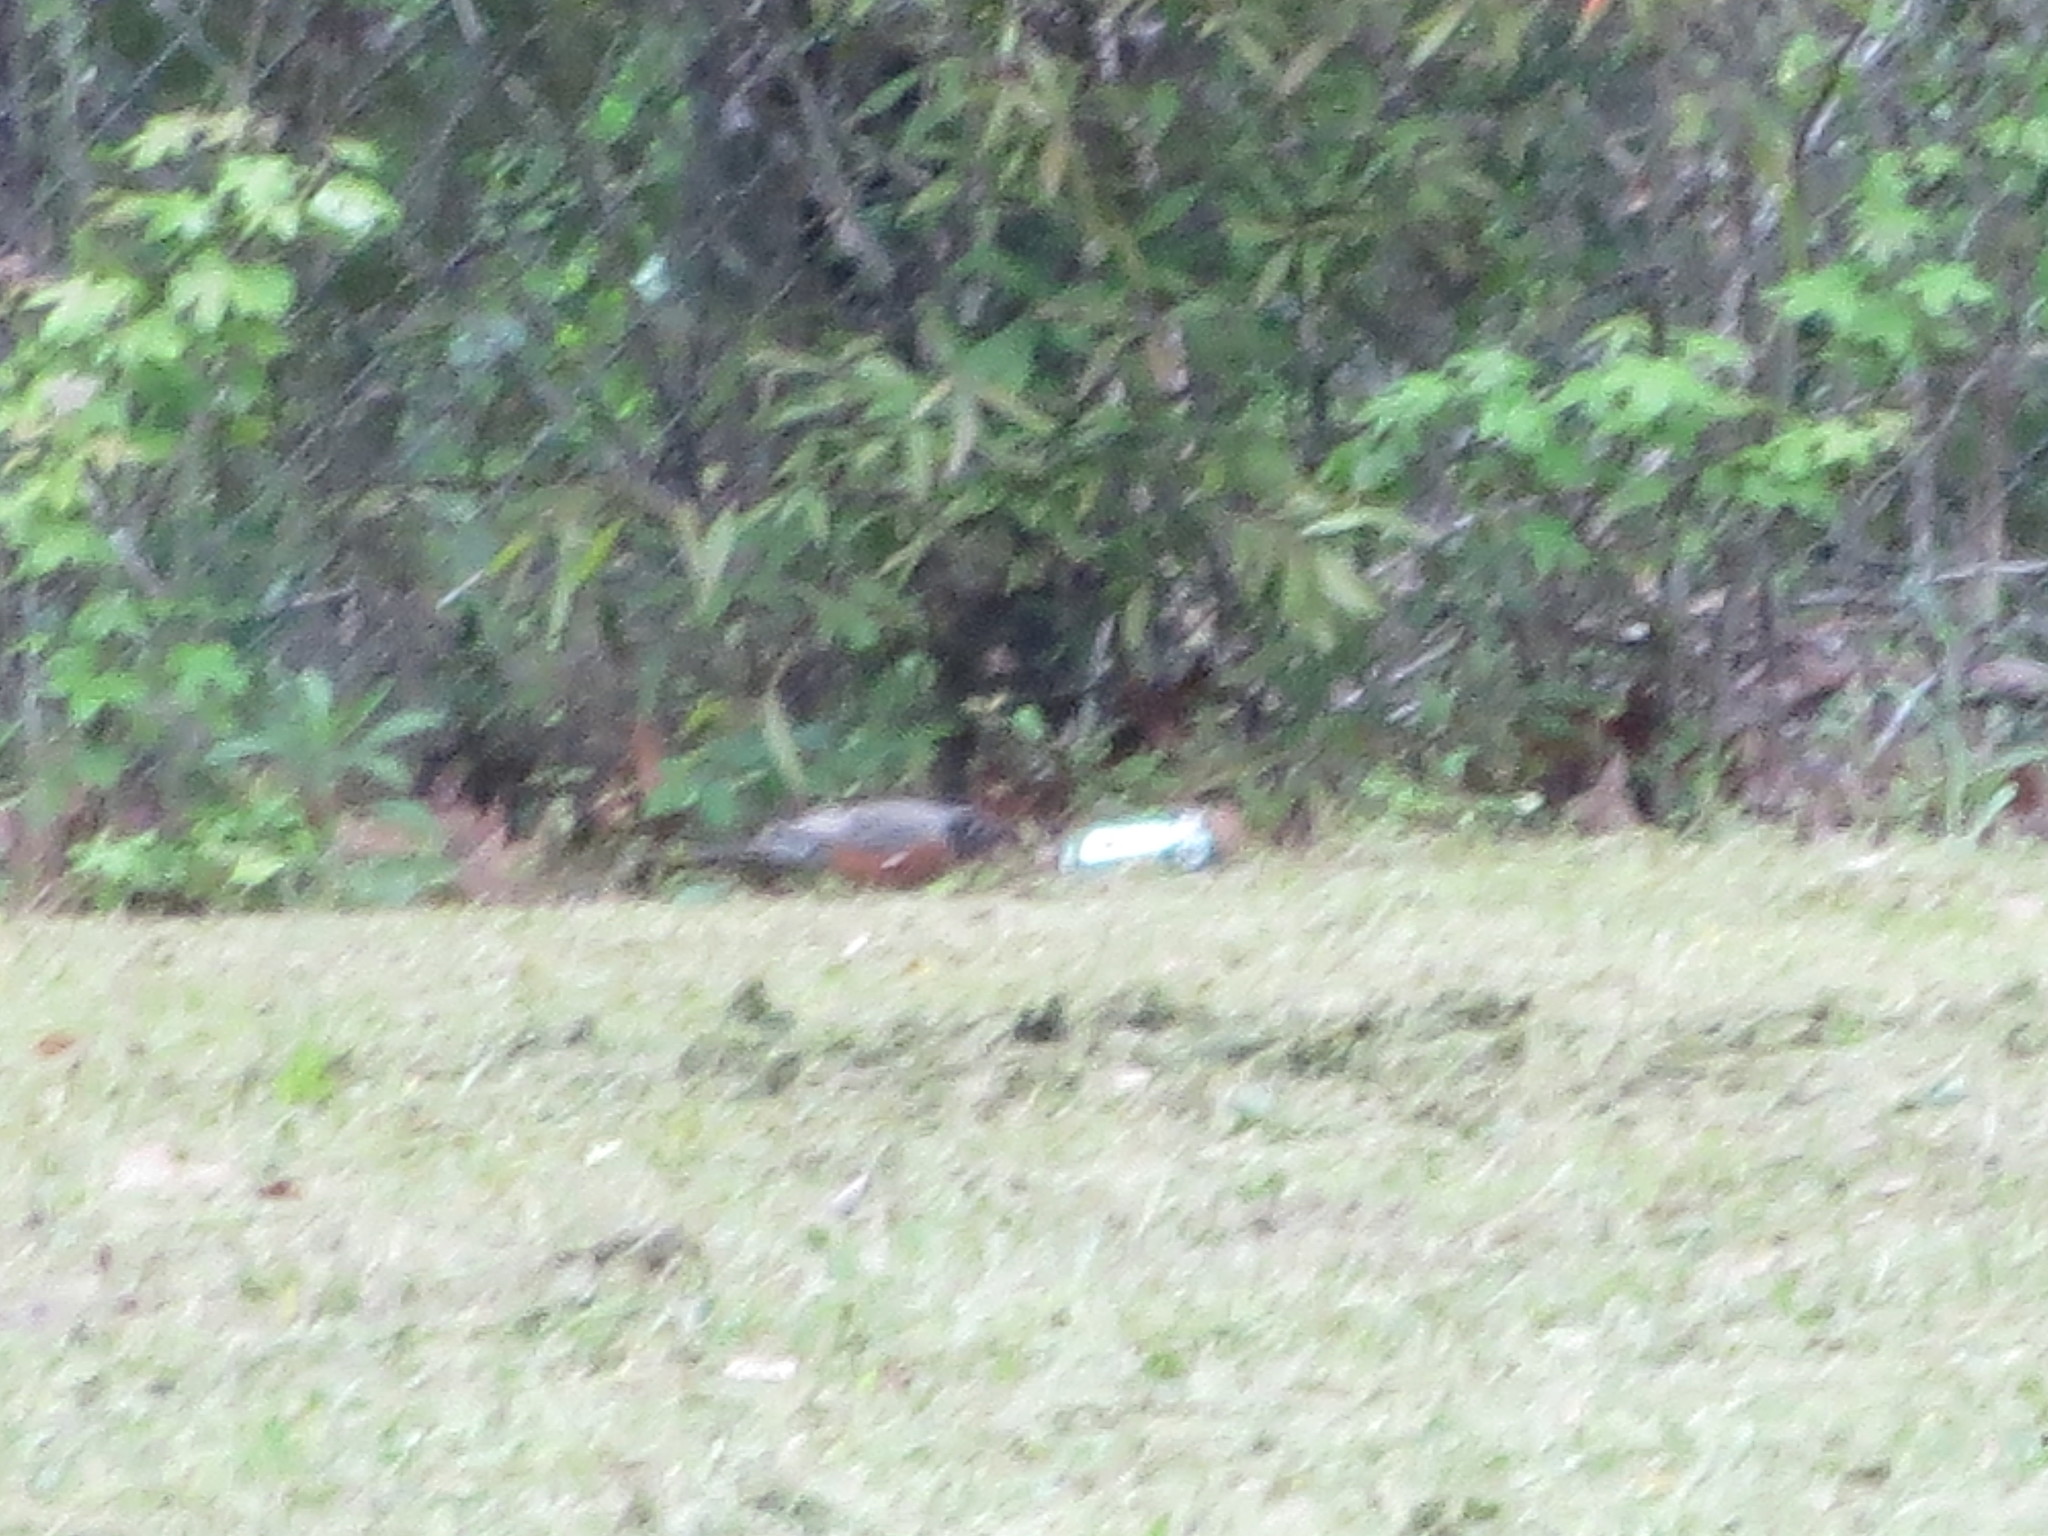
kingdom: Animalia
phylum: Chordata
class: Aves
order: Passeriformes
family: Turdidae
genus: Turdus
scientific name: Turdus migratorius
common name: American robin
